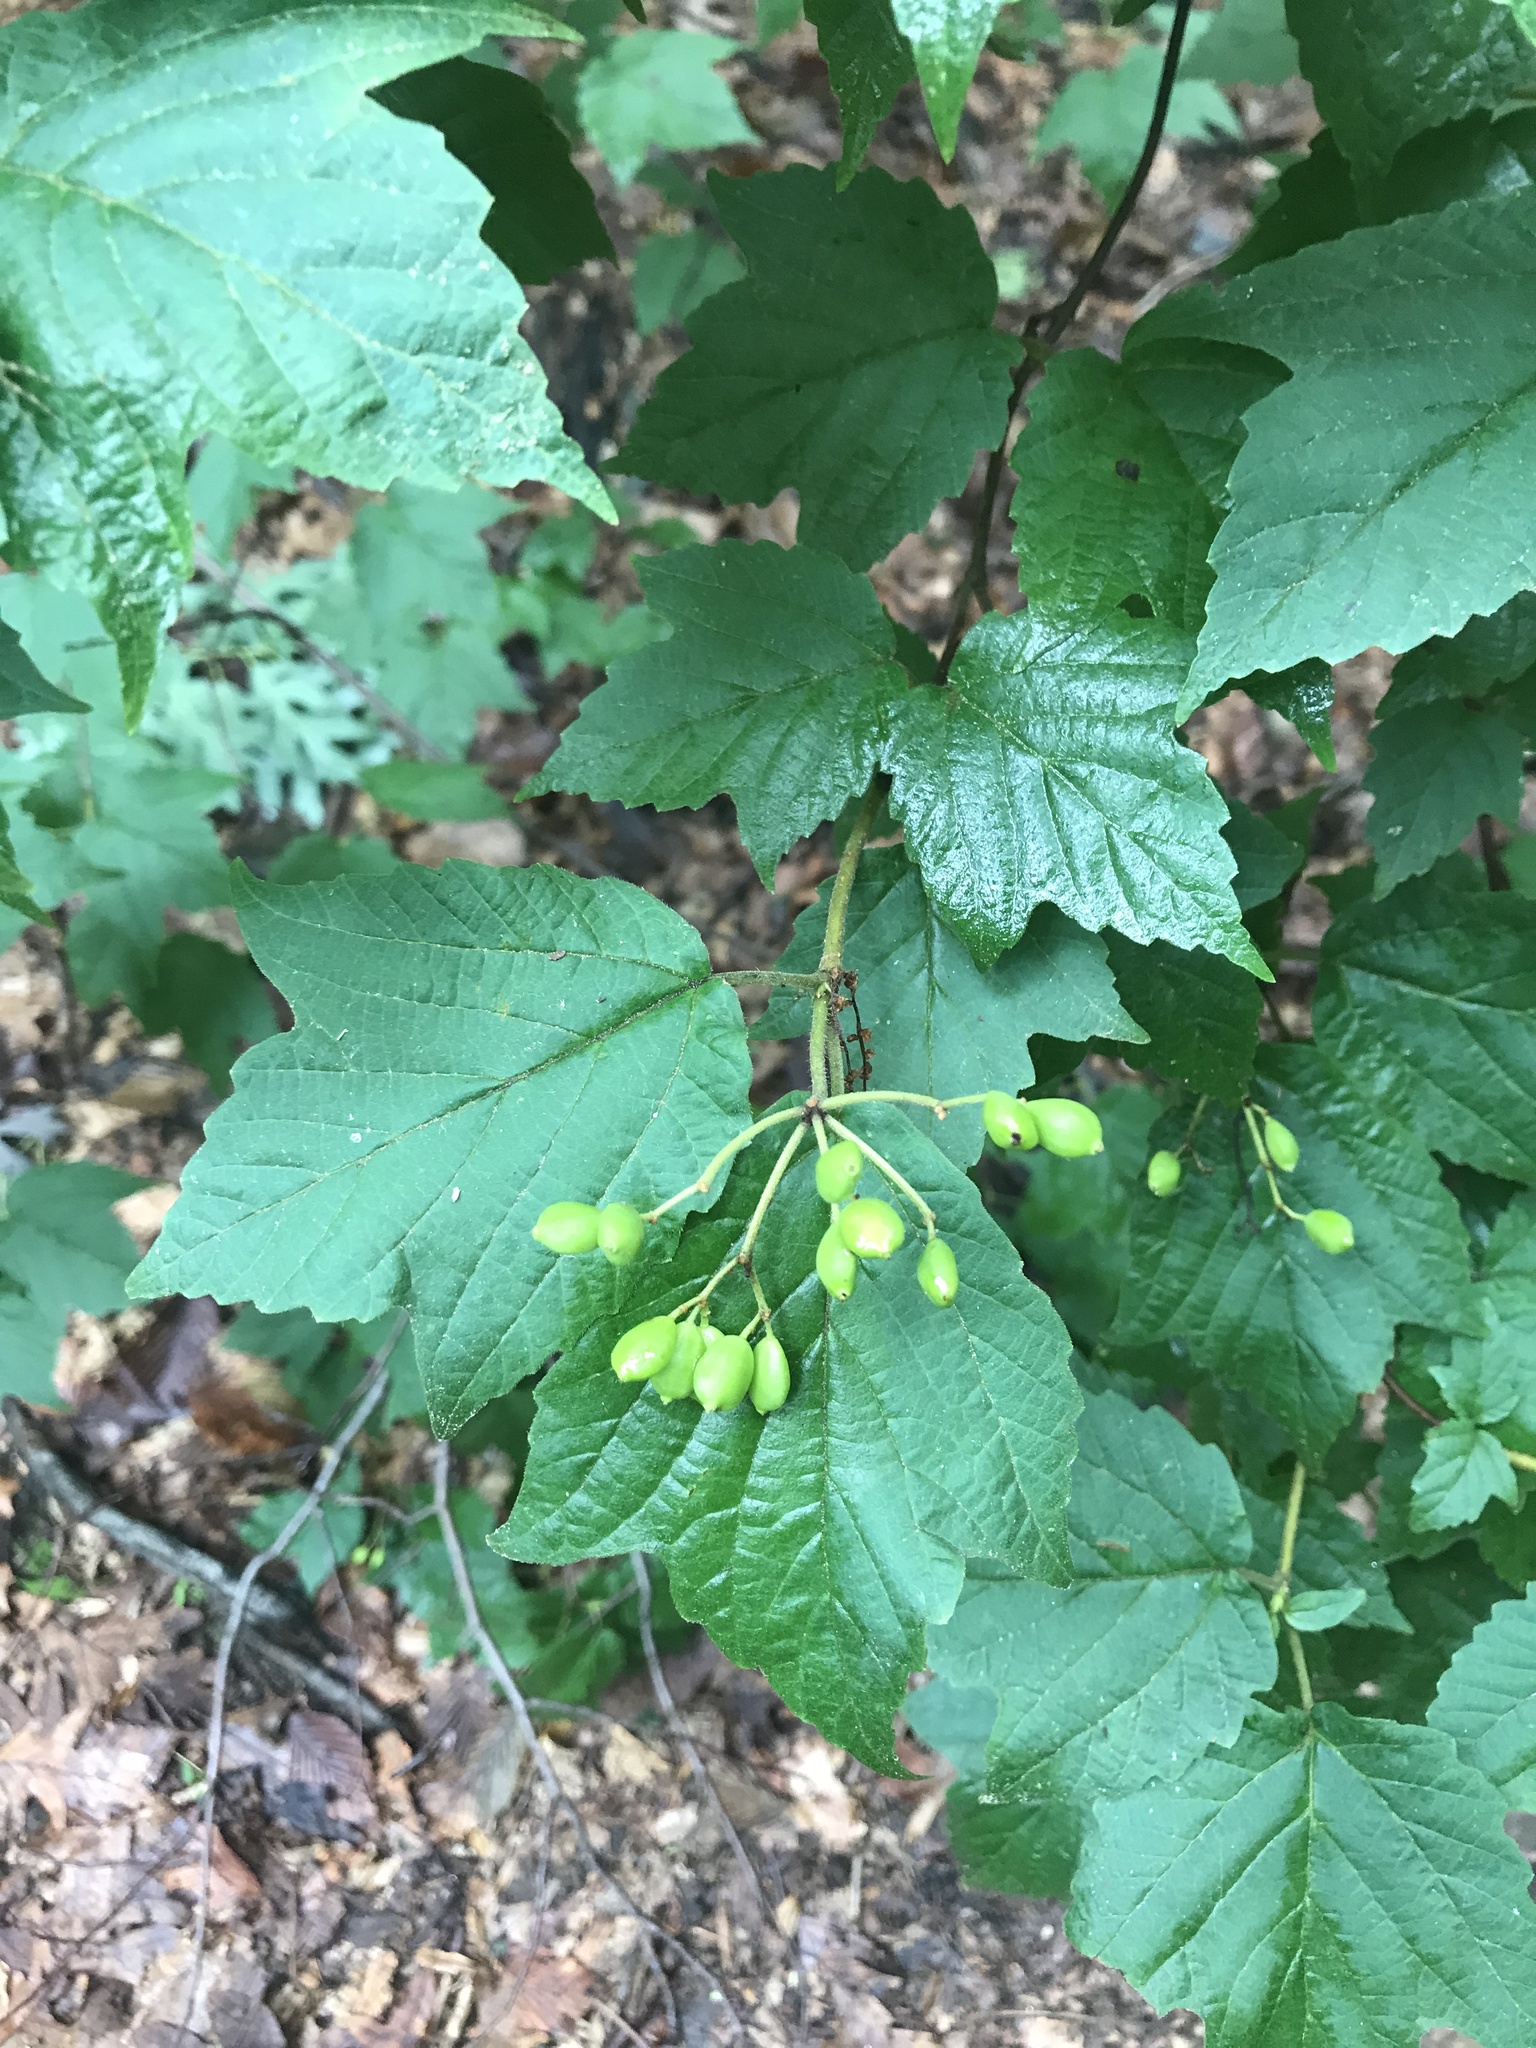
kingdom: Plantae
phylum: Tracheophyta
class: Magnoliopsida
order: Dipsacales
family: Viburnaceae
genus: Viburnum
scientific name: Viburnum acerifolium
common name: Dockmackie
